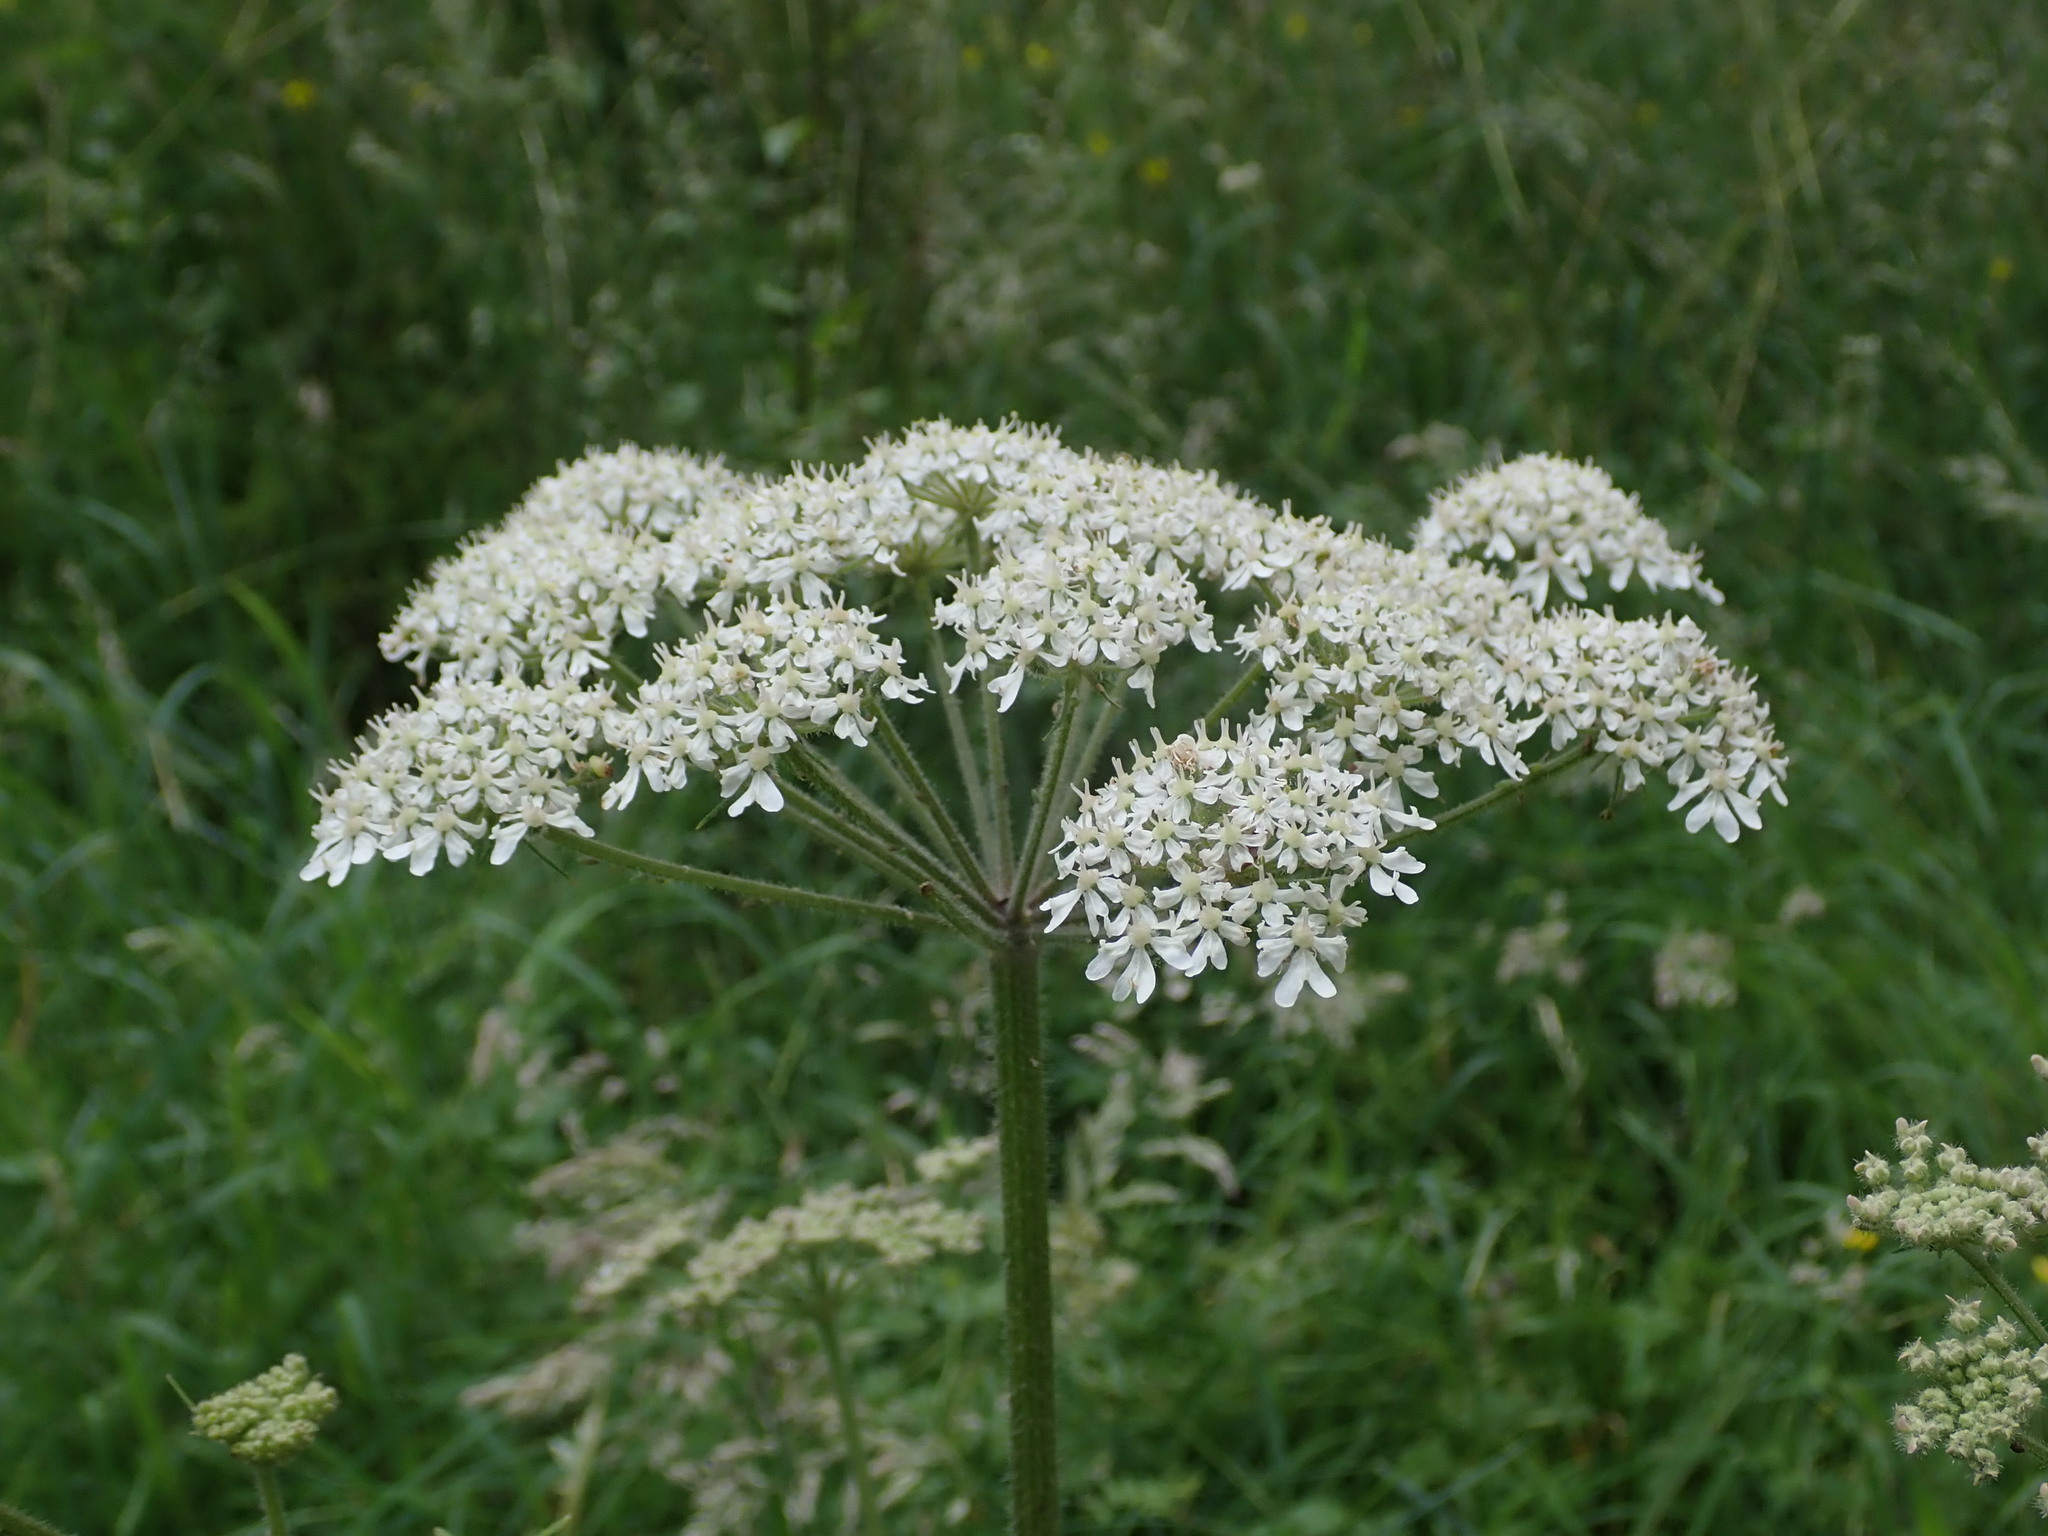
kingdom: Plantae
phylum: Tracheophyta
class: Magnoliopsida
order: Apiales
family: Apiaceae
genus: Heracleum
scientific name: Heracleum sphondylium
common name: Hogweed
